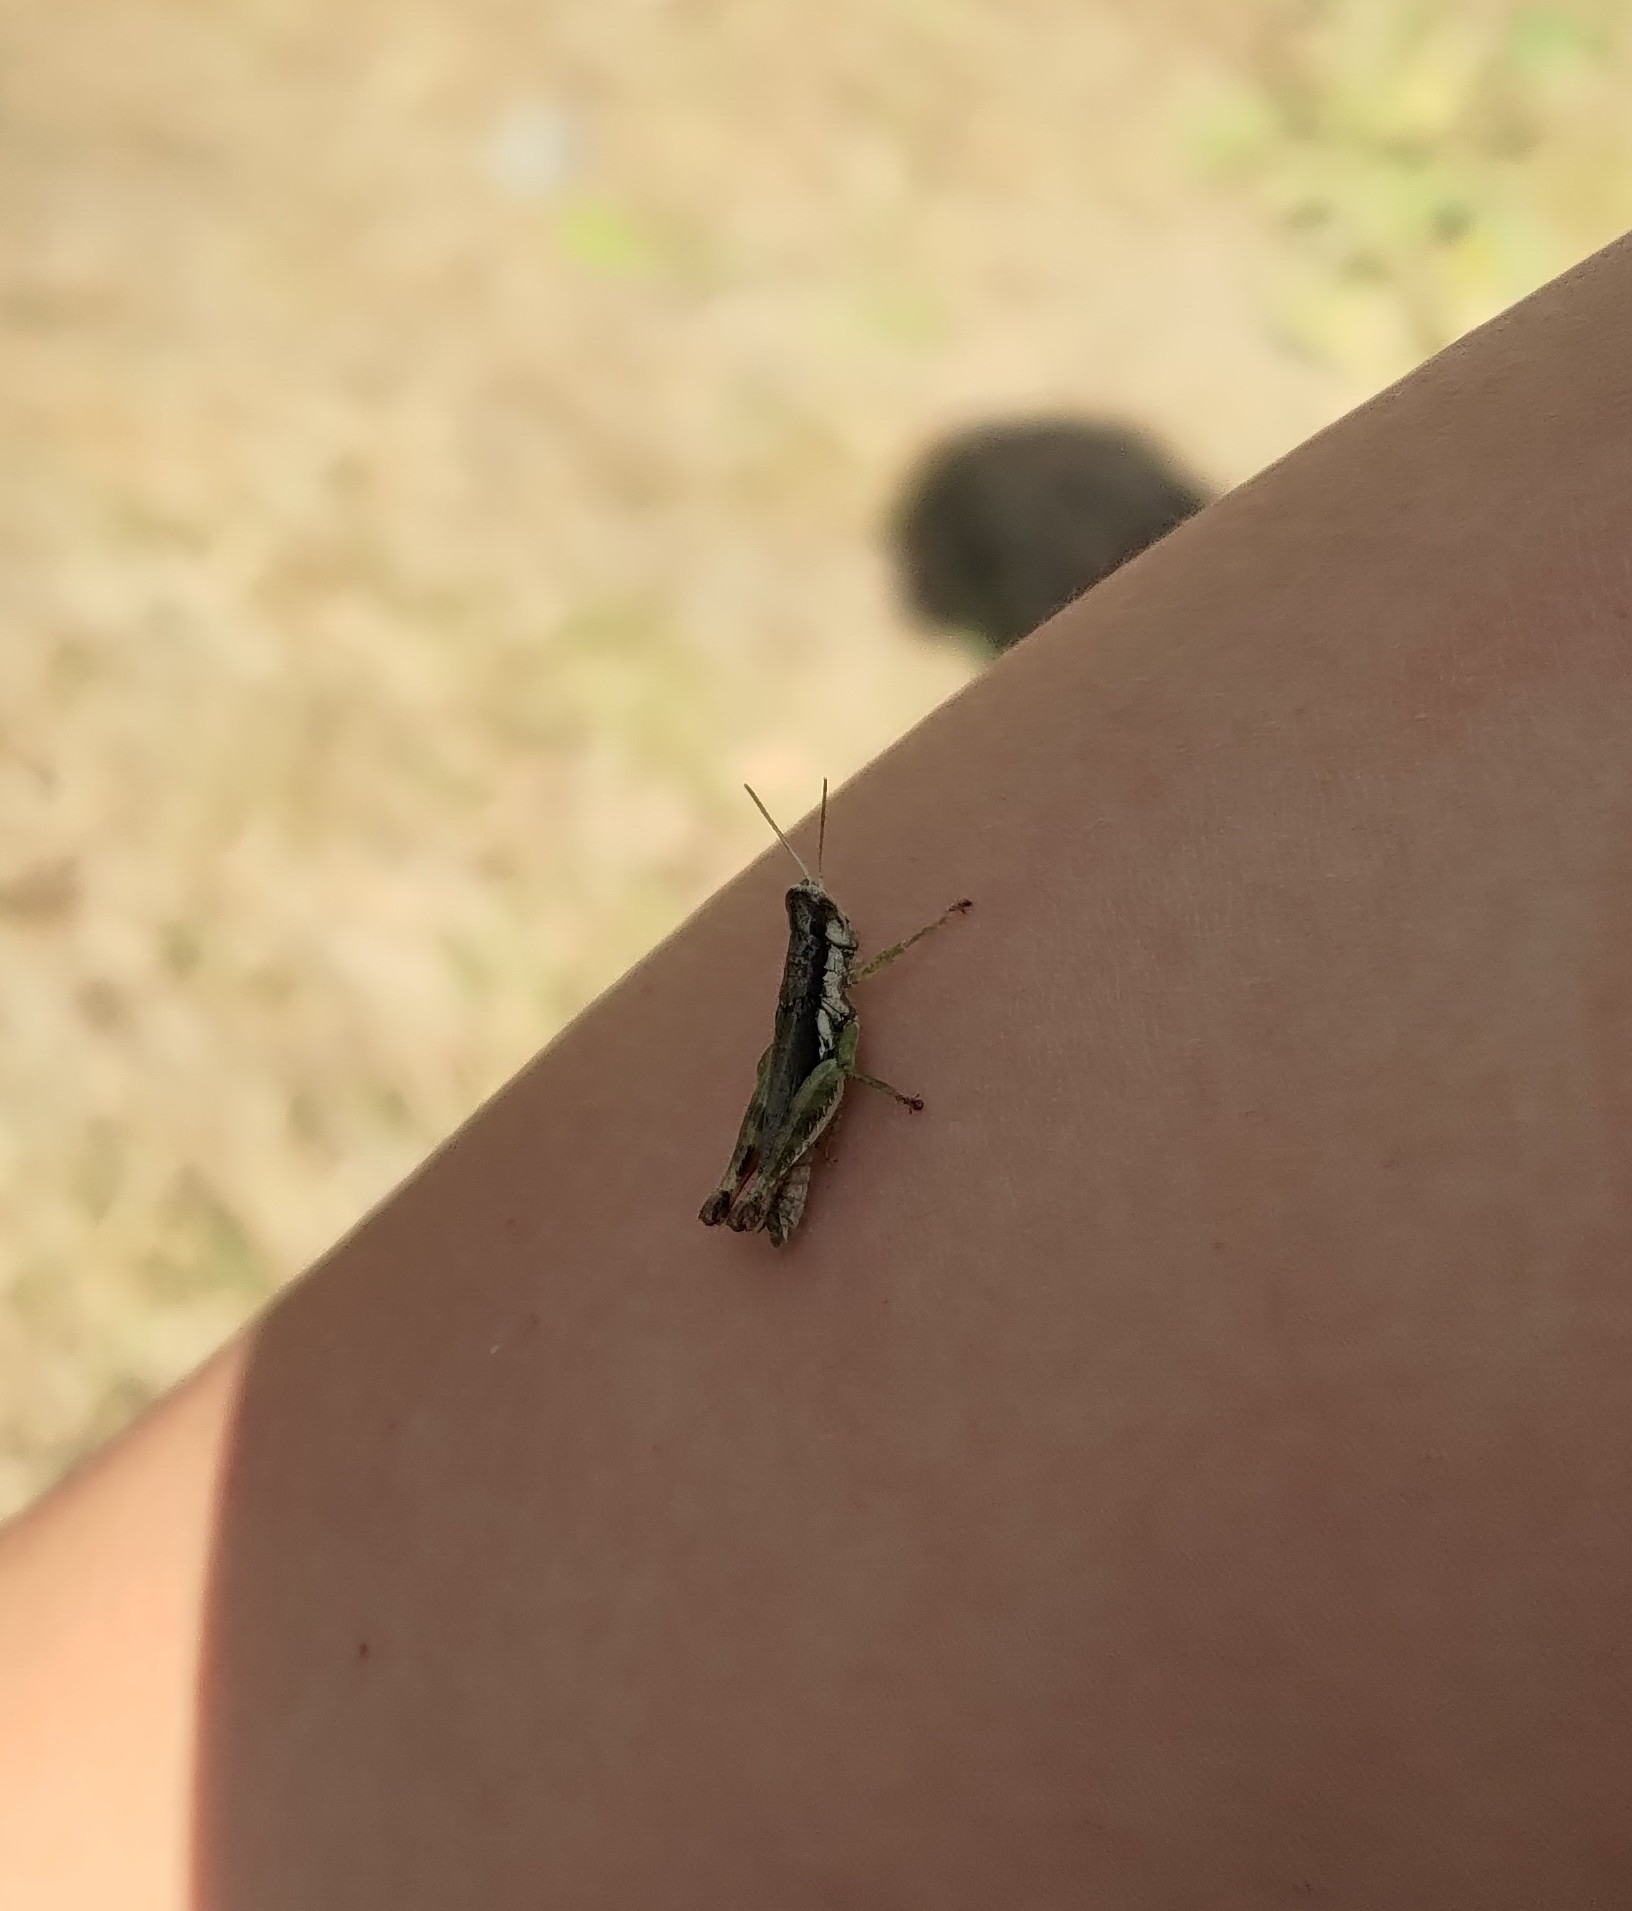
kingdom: Animalia
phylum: Arthropoda
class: Insecta
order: Orthoptera
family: Acrididae
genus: Pseudoxya
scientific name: Pseudoxya diminuta
